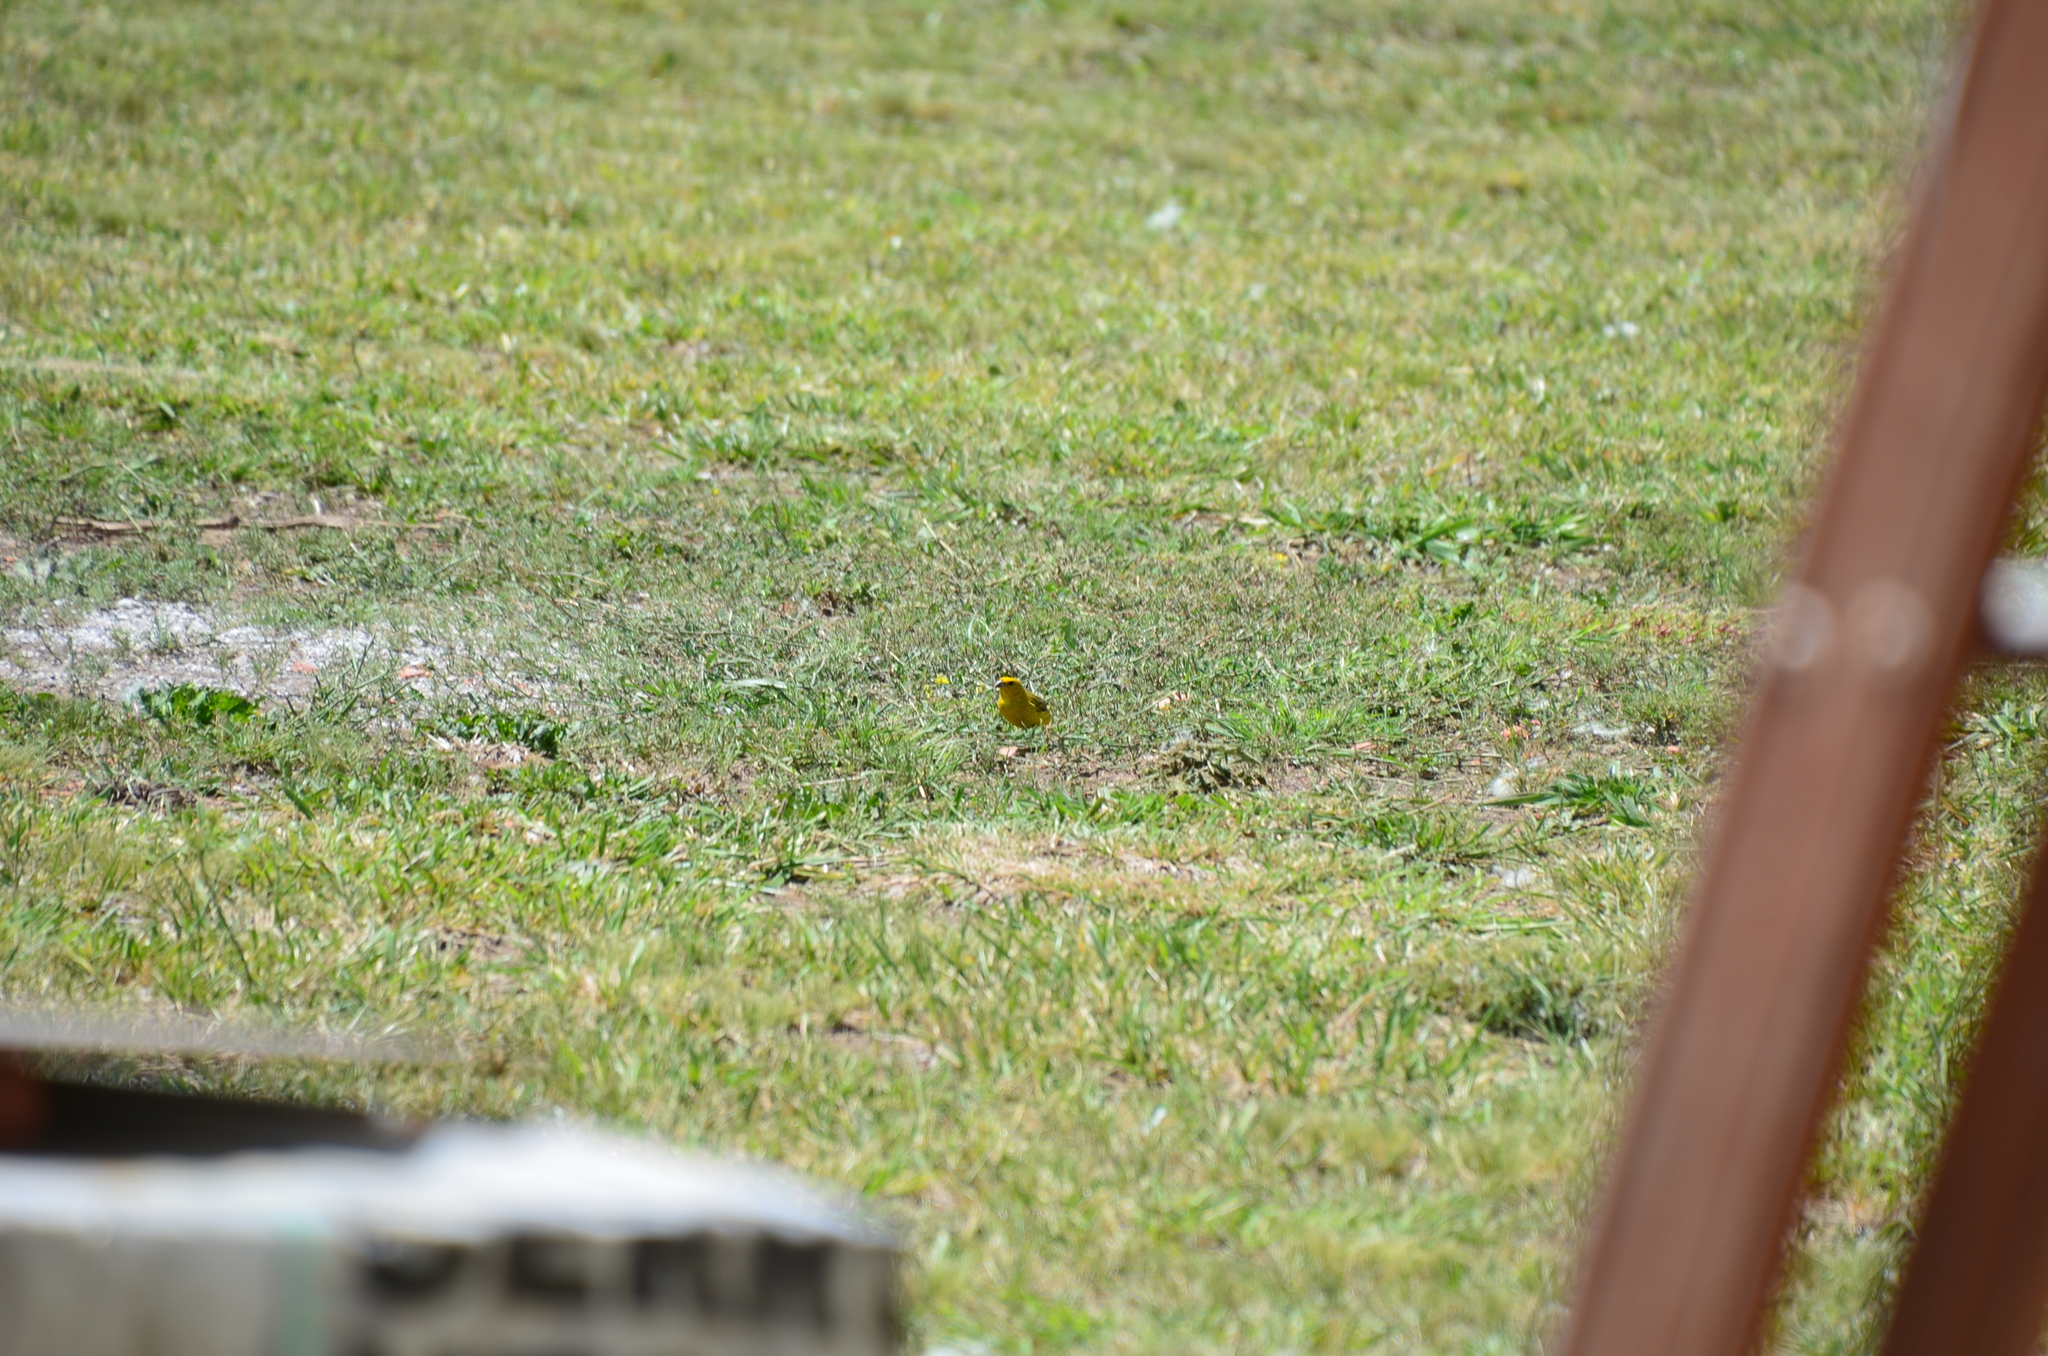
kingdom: Animalia
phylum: Chordata
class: Aves
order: Passeriformes
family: Thraupidae
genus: Sicalis
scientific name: Sicalis flaveola
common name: Saffron finch
